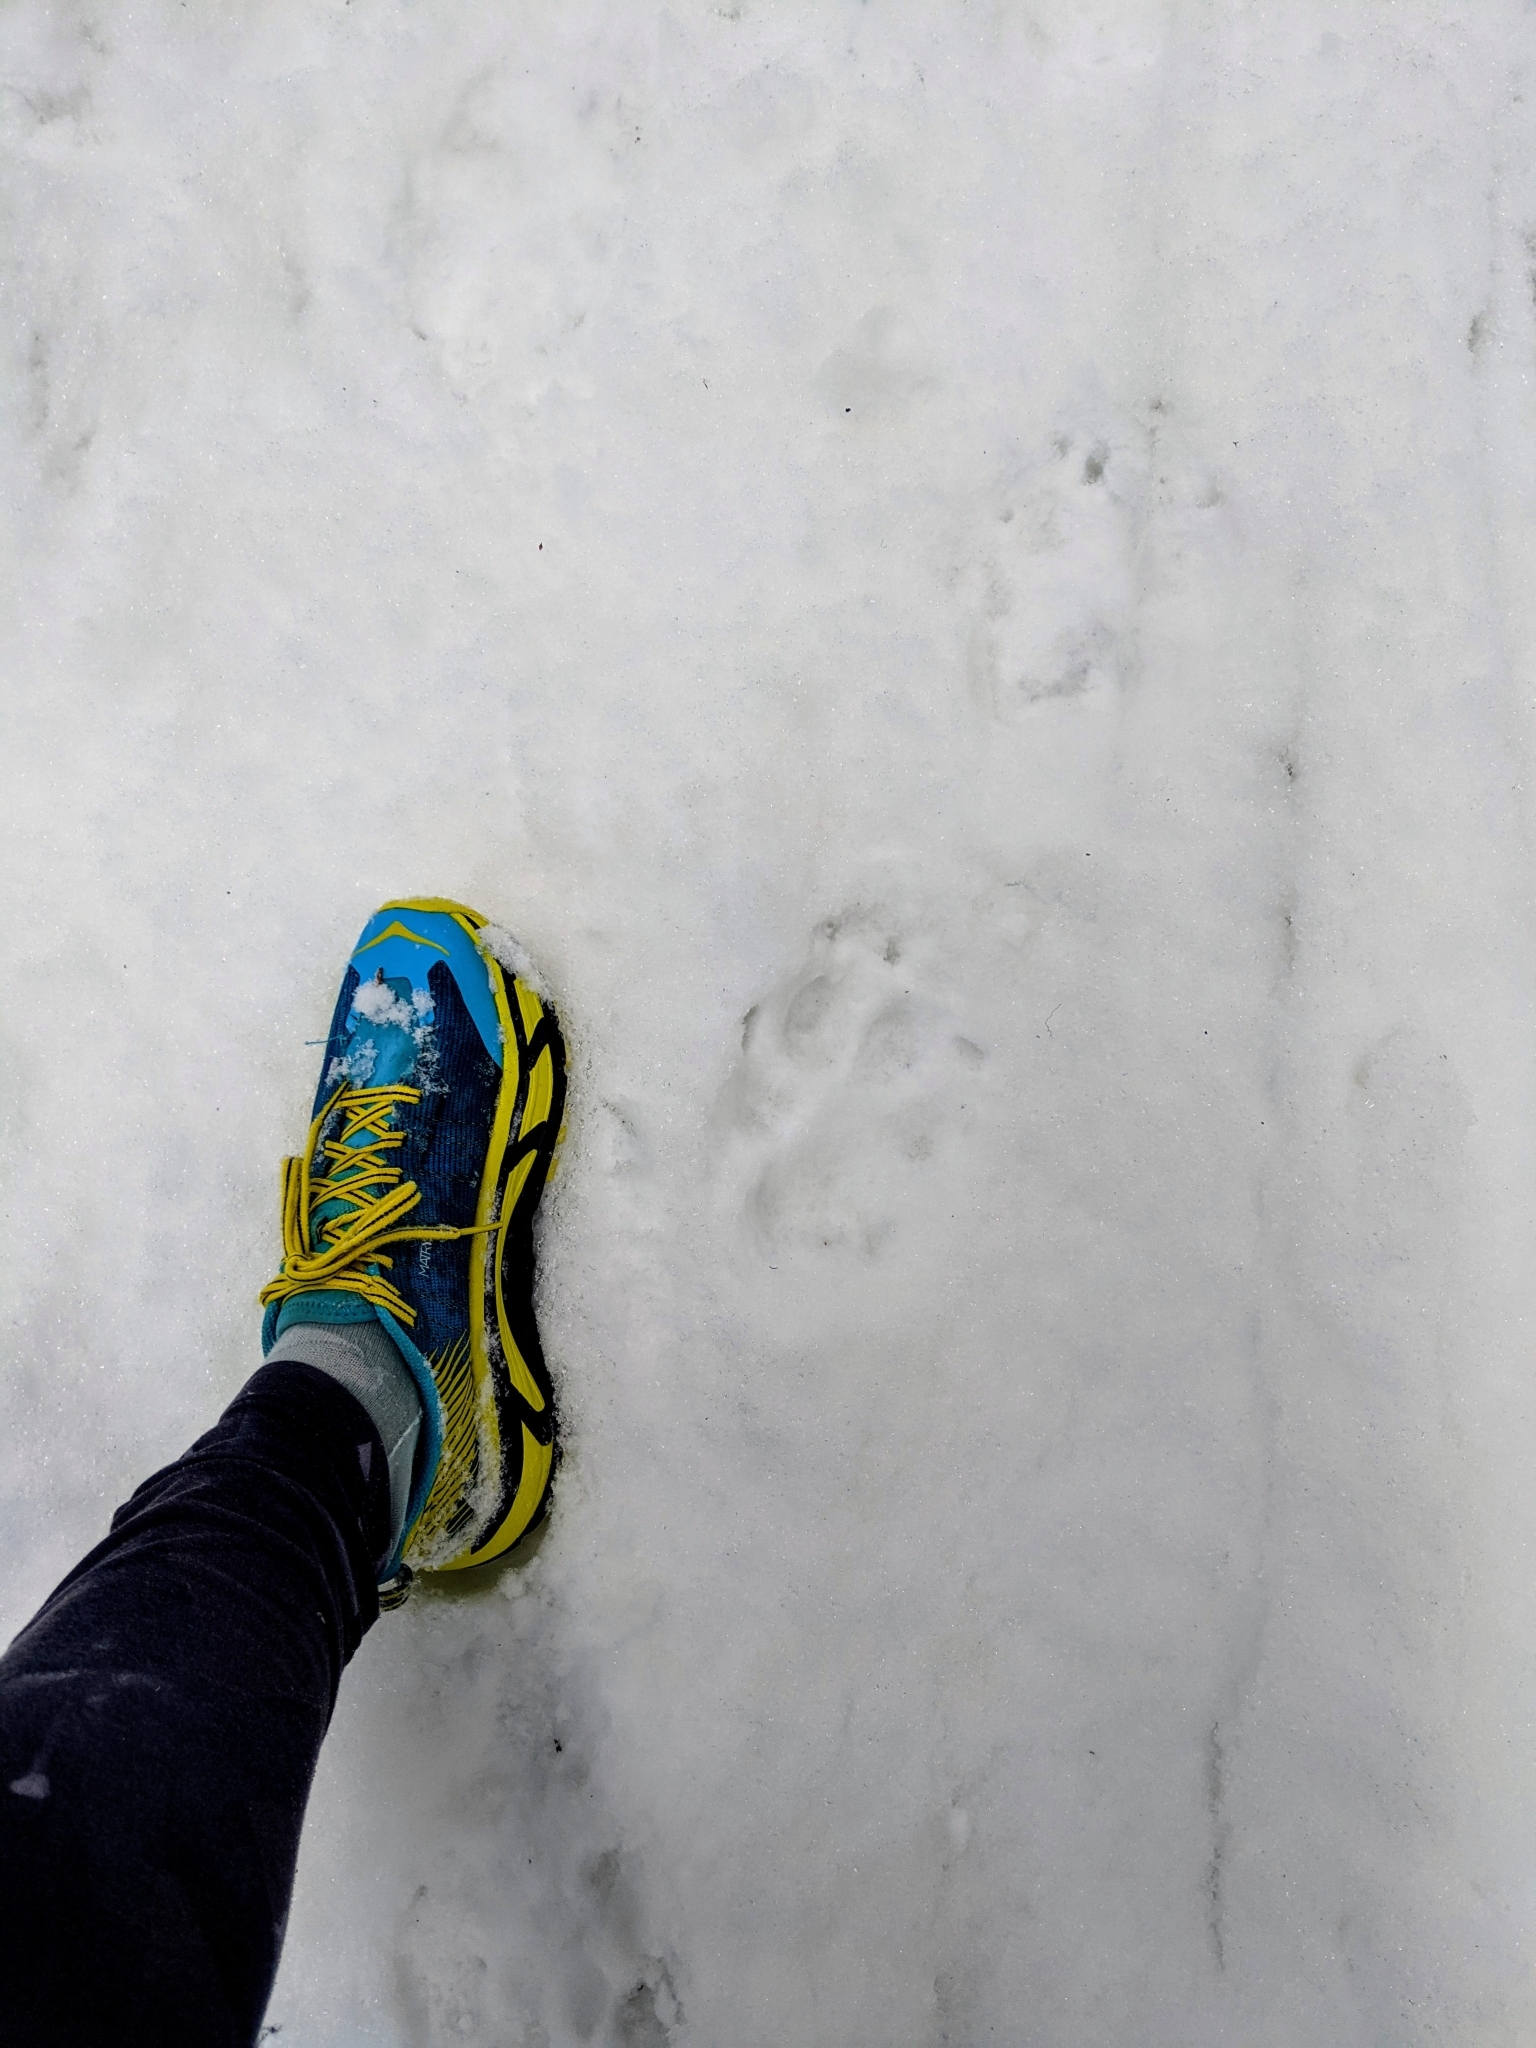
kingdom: Animalia
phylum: Chordata
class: Mammalia
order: Carnivora
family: Canidae
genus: Canis
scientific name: Canis lupus
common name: Gray wolf
